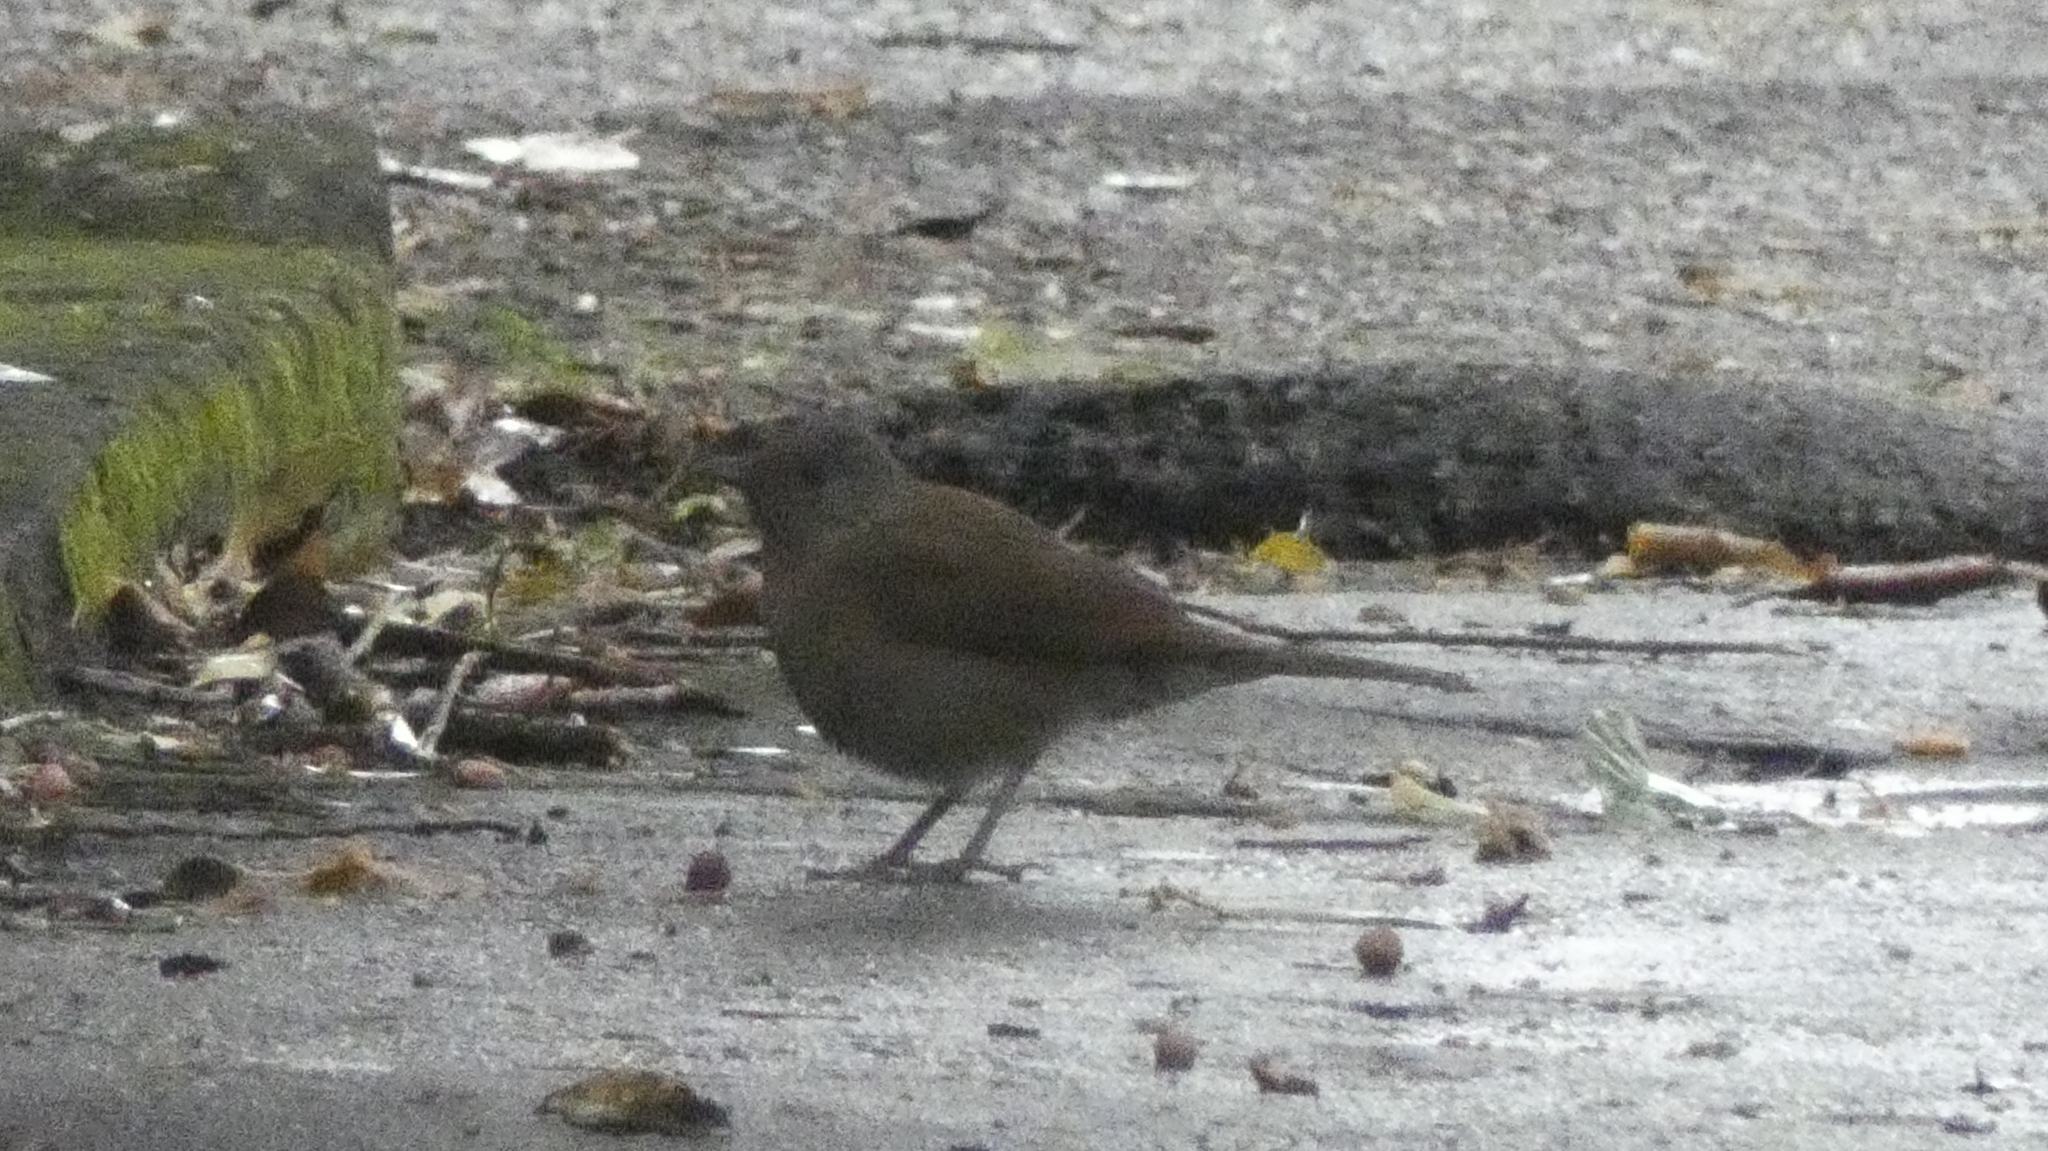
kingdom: Animalia
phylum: Chordata
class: Aves
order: Passeriformes
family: Turdidae
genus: Turdus
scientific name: Turdus leucomelas
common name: Pale-breasted thrush
